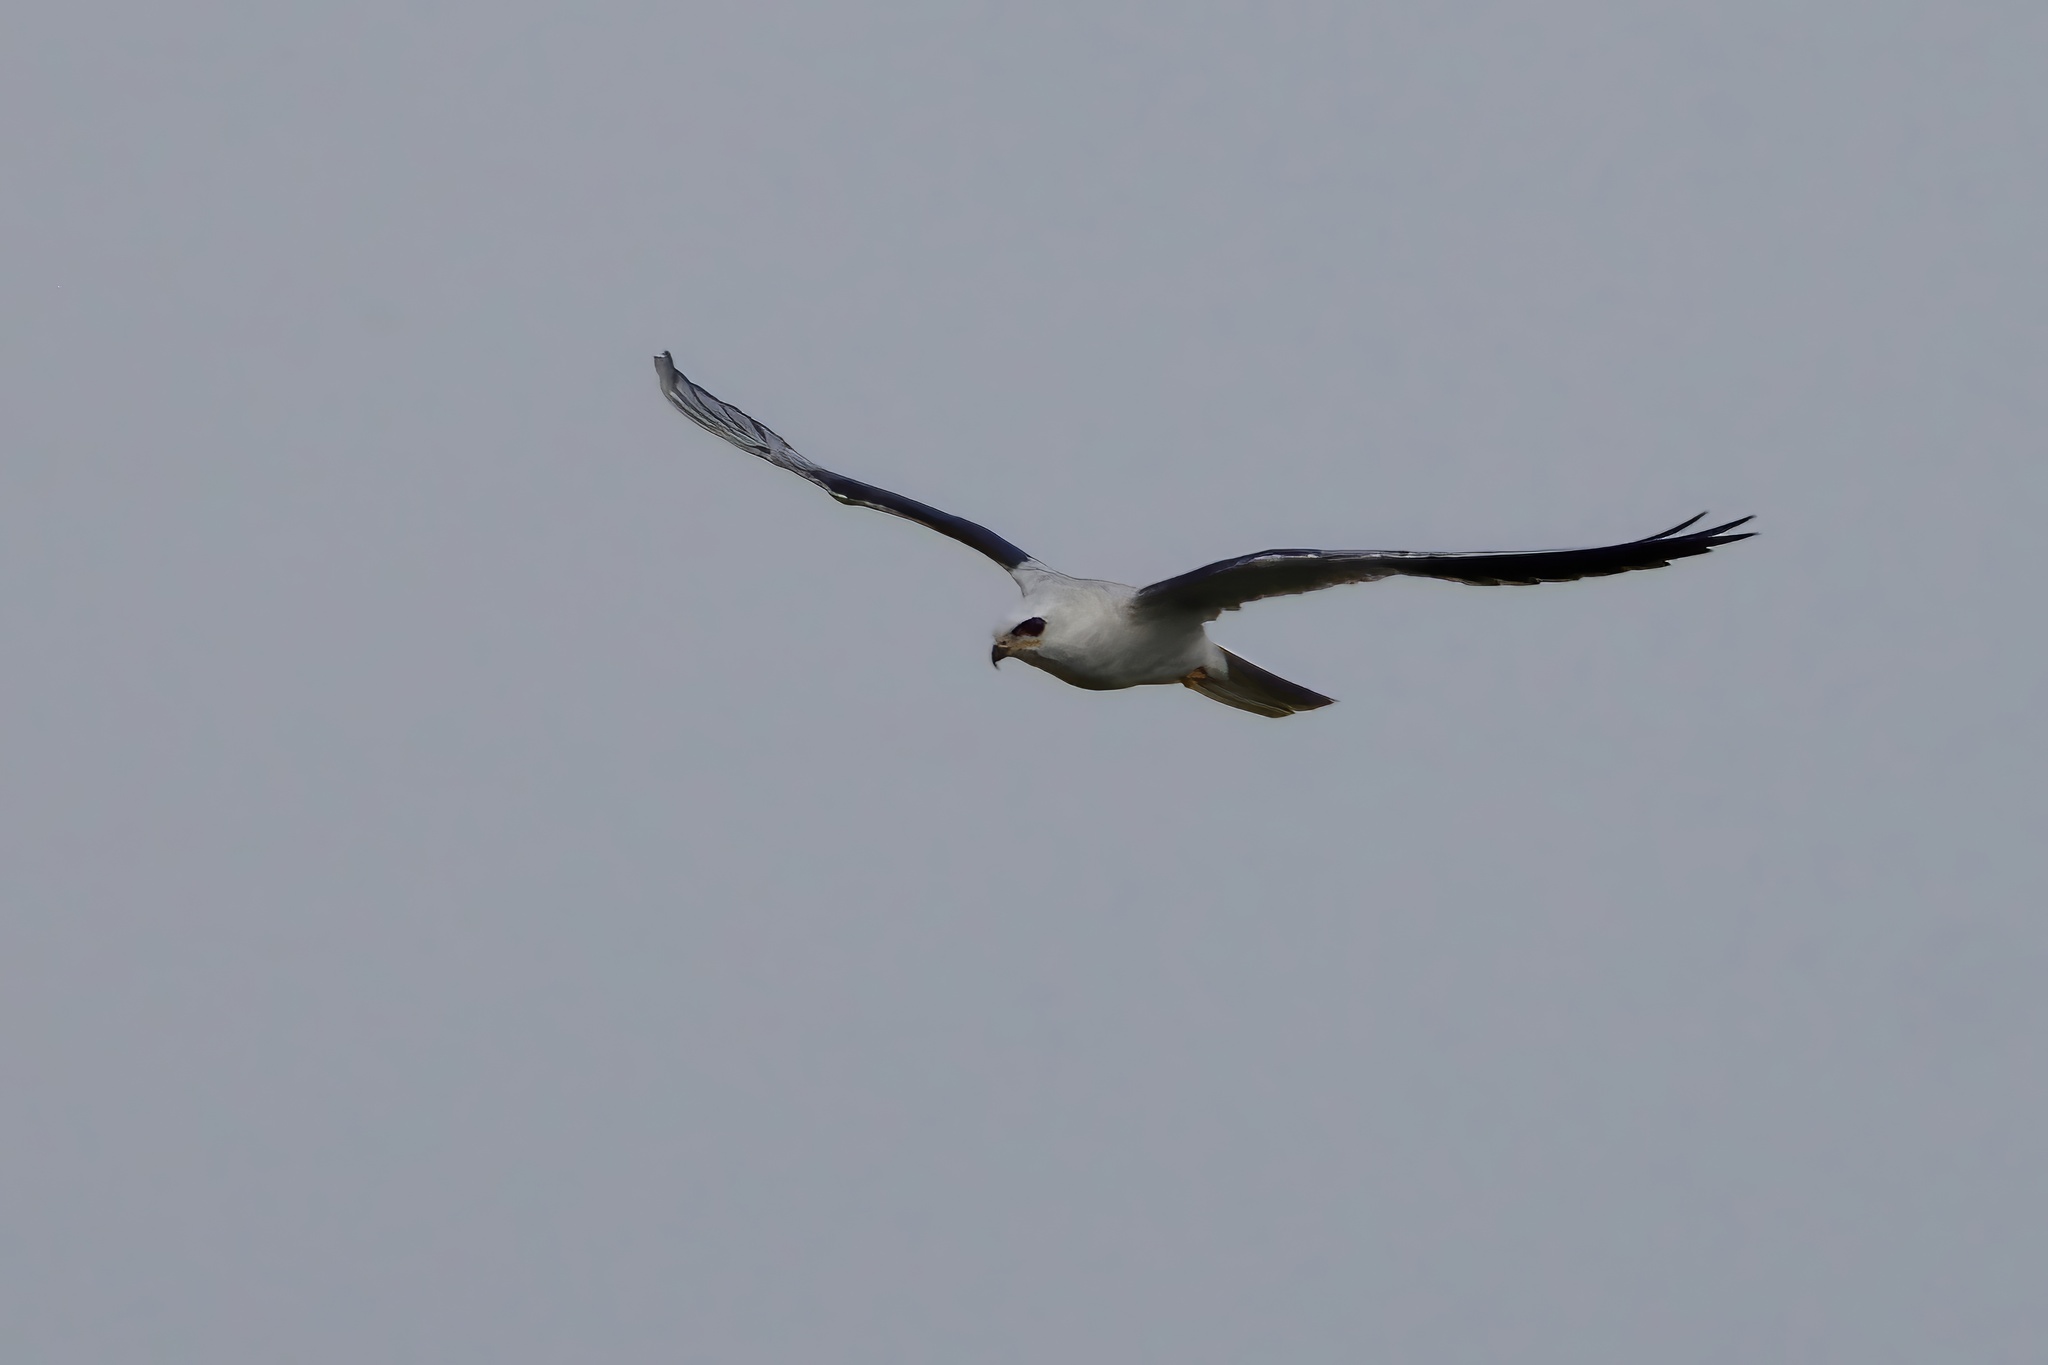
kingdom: Animalia
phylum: Chordata
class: Aves
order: Accipitriformes
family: Accipitridae
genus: Elanus
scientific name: Elanus leucurus
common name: White-tailed kite
